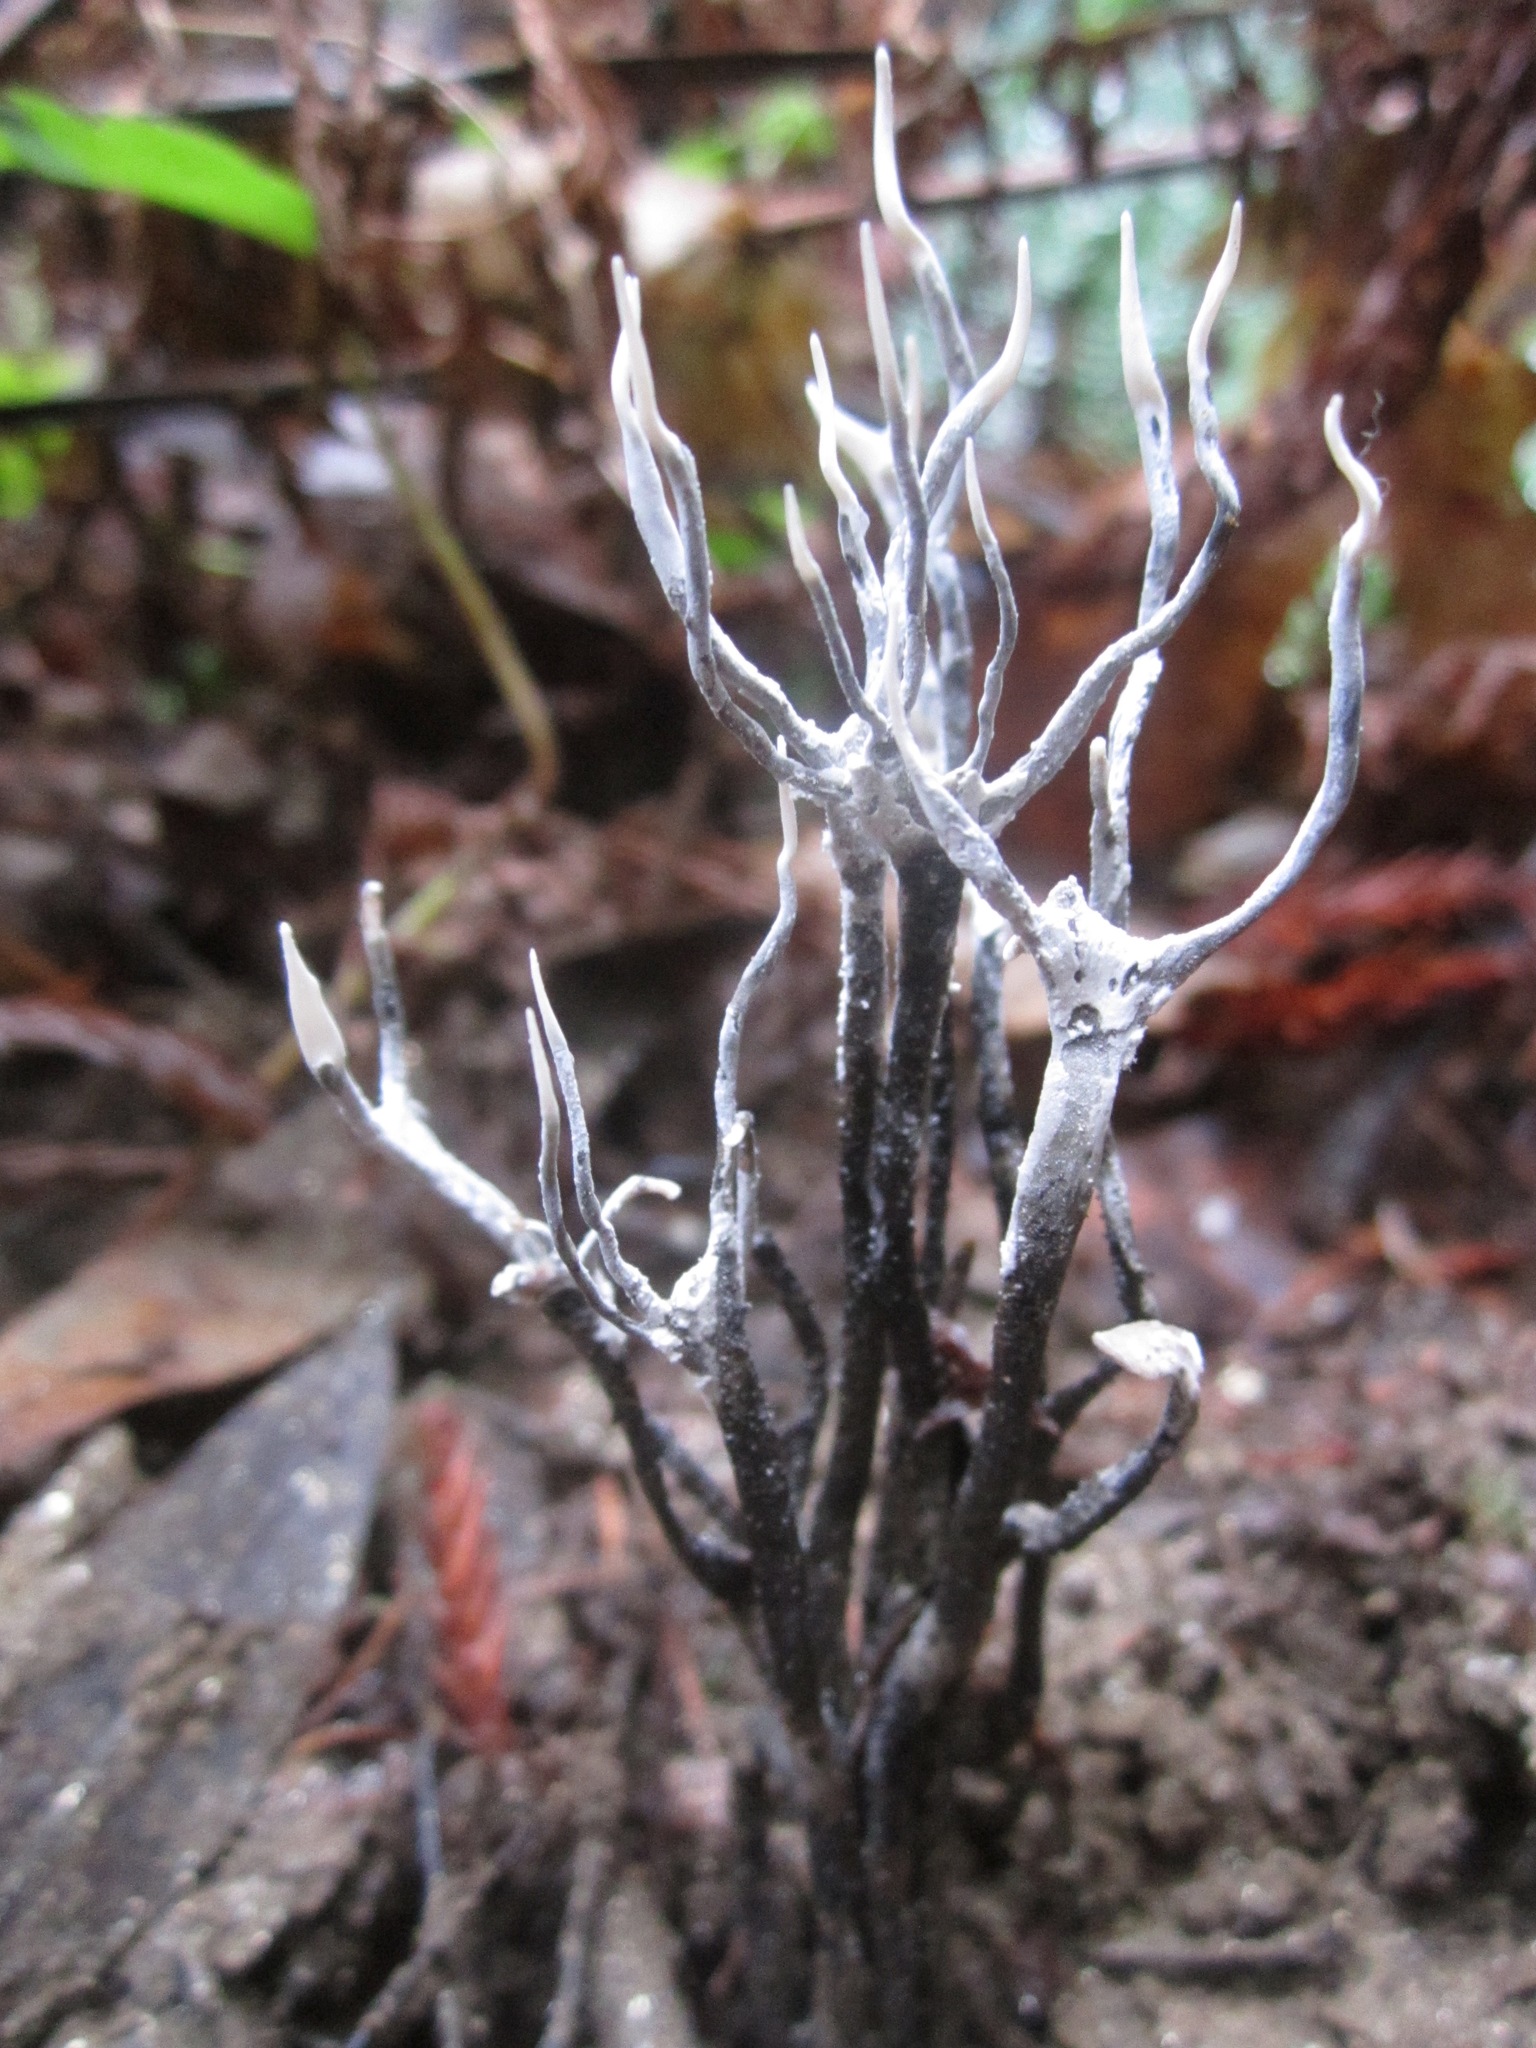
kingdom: Fungi
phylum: Ascomycota
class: Sordariomycetes
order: Xylariales
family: Xylariaceae
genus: Xylaria
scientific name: Xylaria hypoxylon
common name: Candle-snuff fungus
